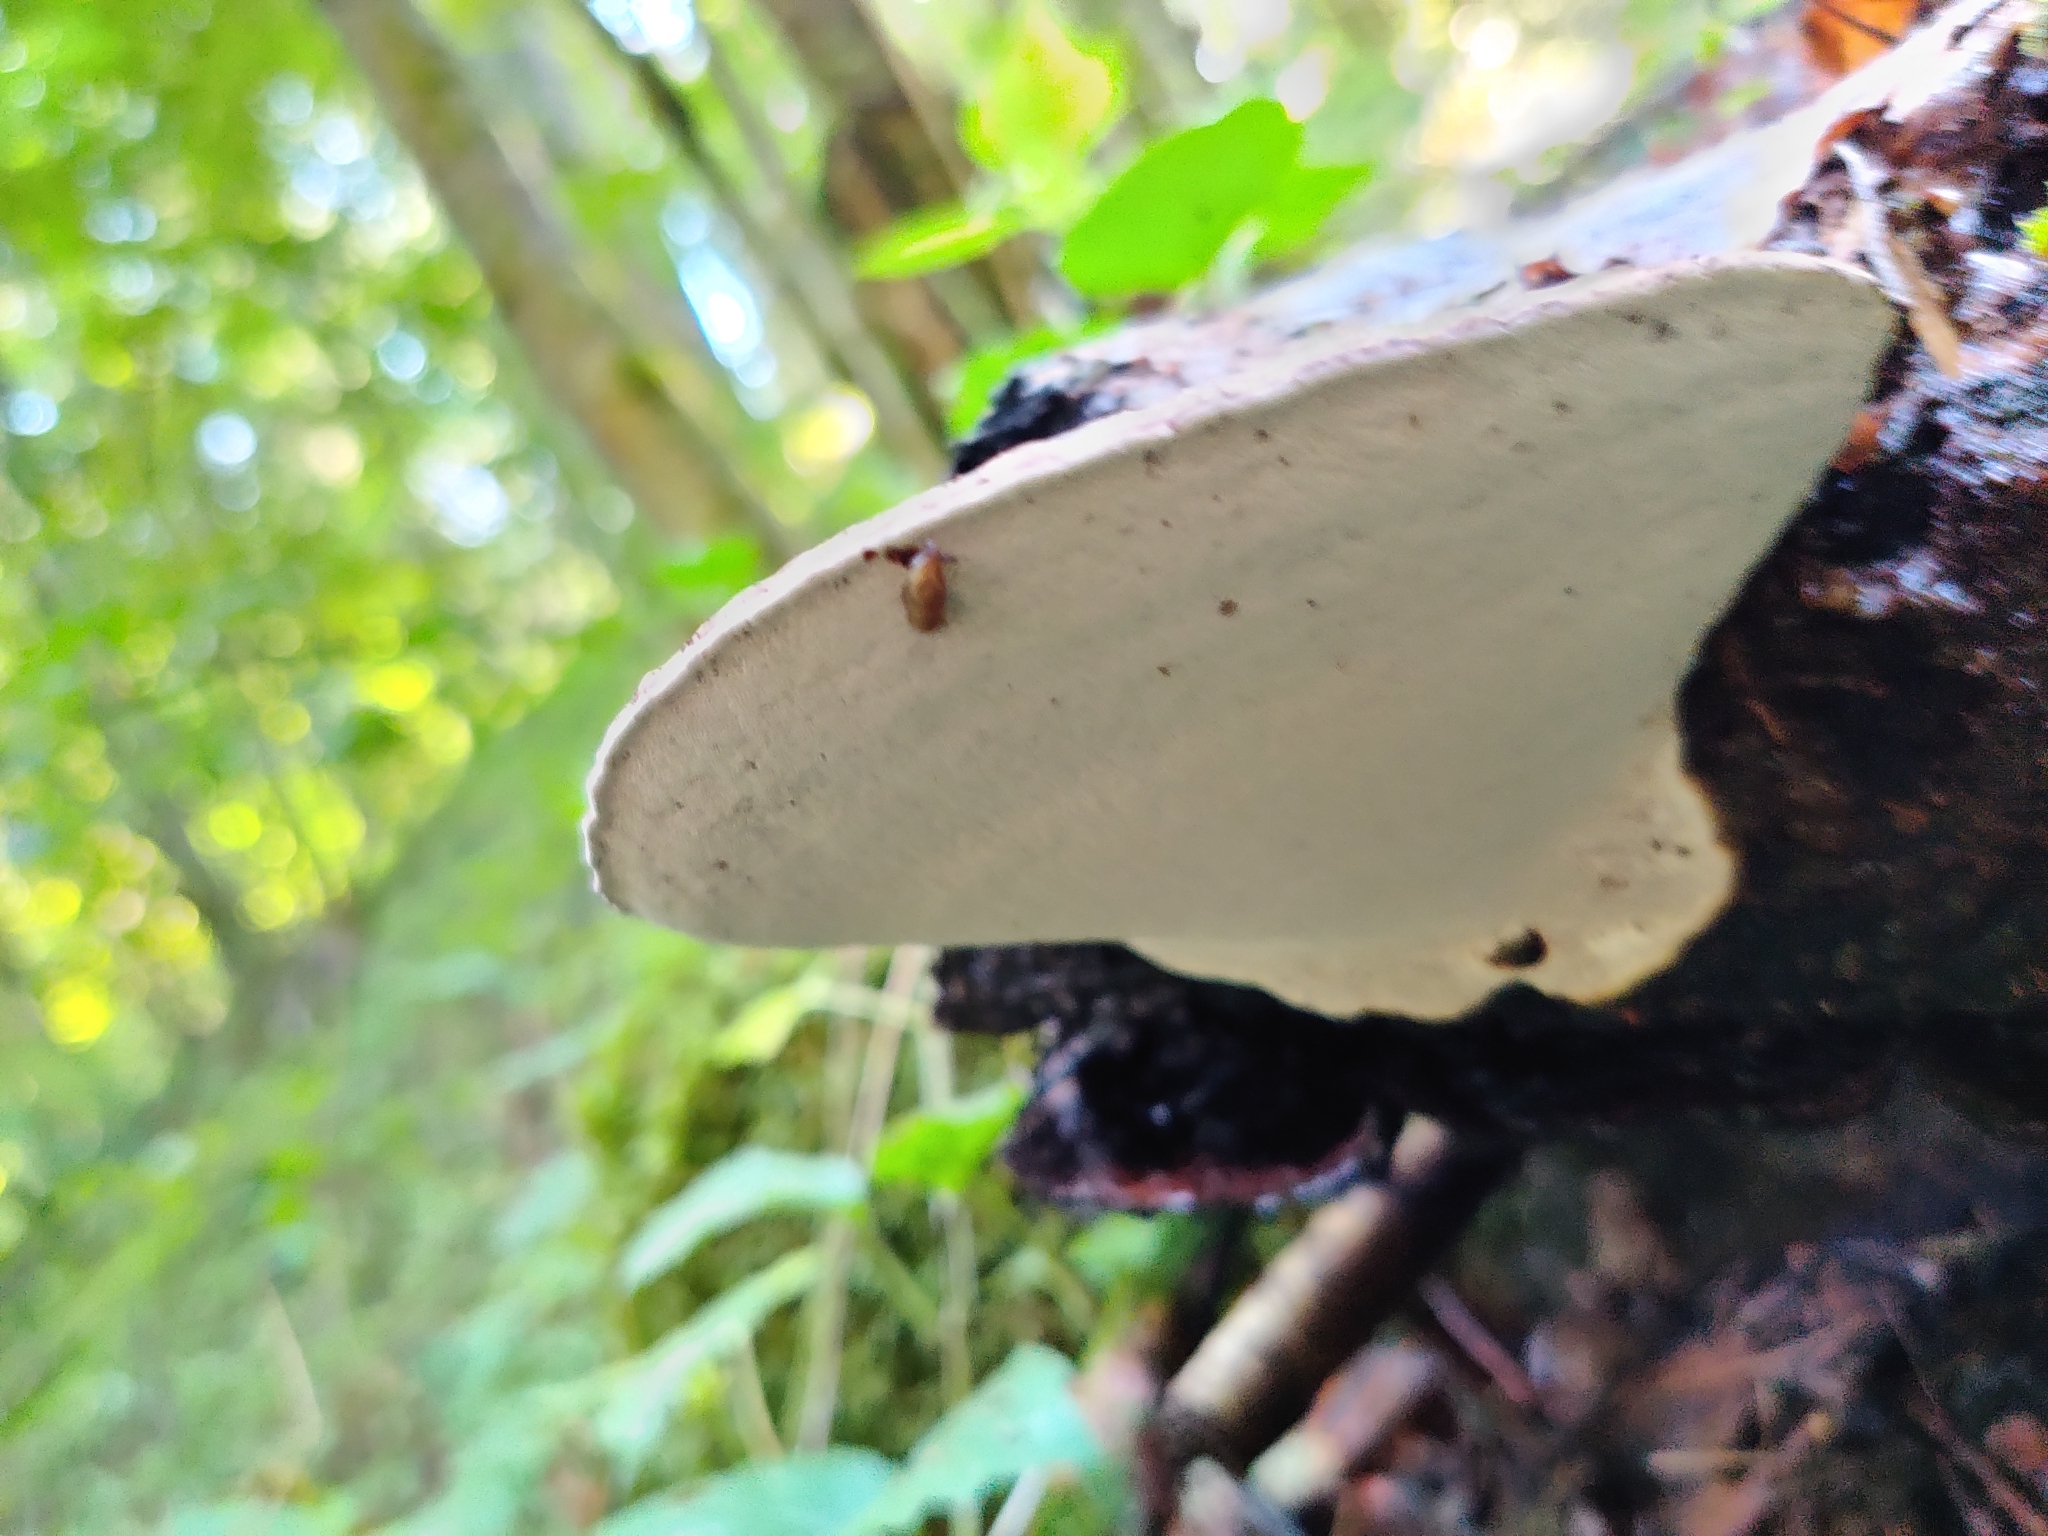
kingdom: Fungi
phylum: Basidiomycota
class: Agaricomycetes
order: Polyporales
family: Polyporaceae
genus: Ganoderma
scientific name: Ganoderma applanatum
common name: Artist's bracket
